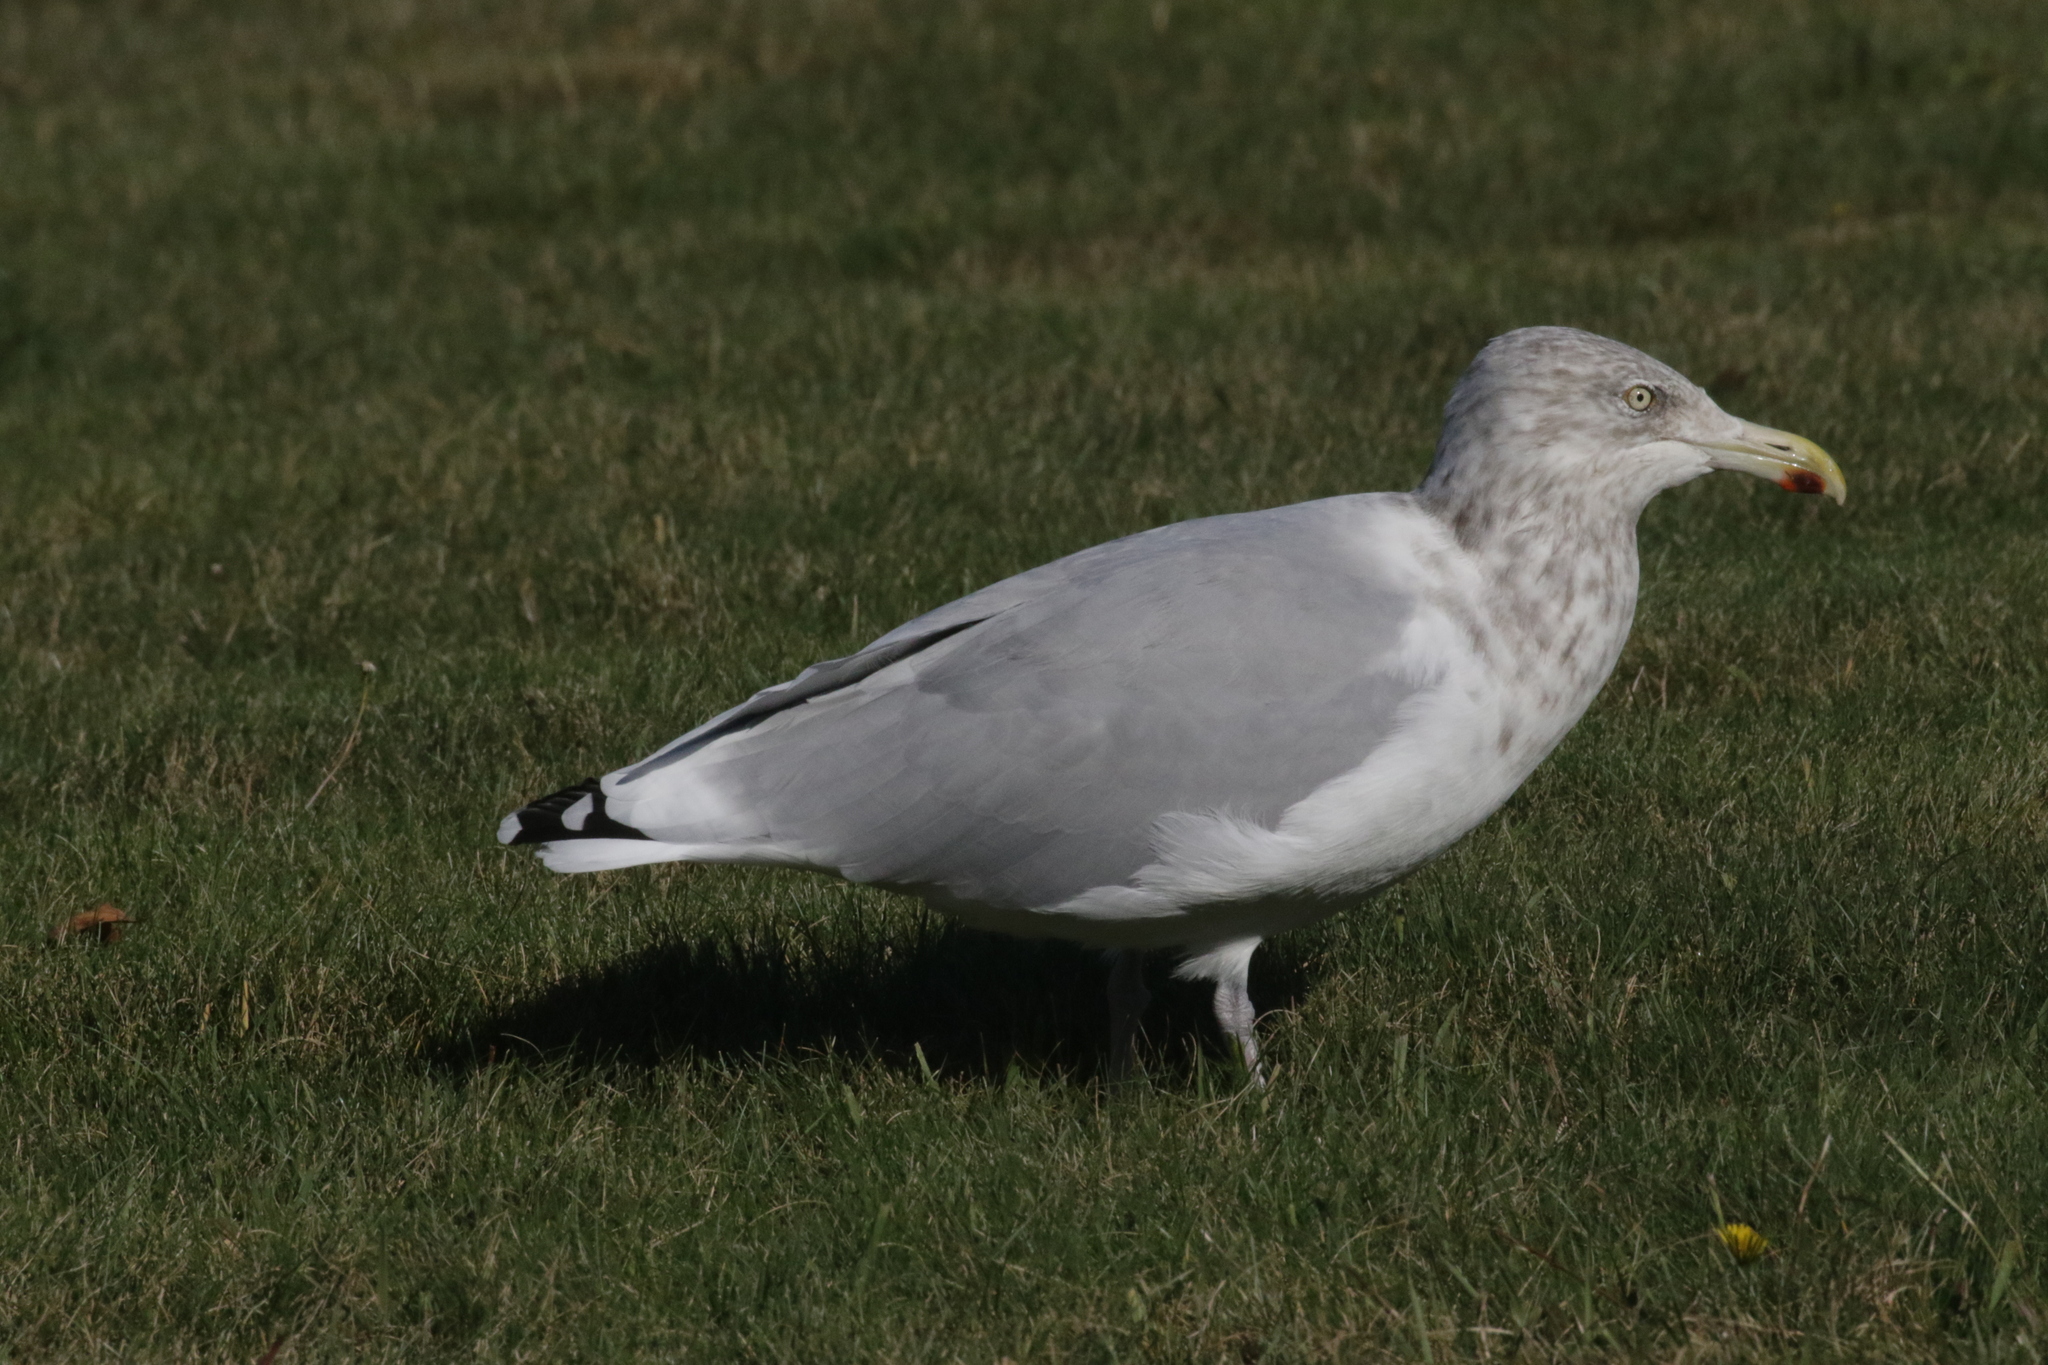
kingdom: Animalia
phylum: Chordata
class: Aves
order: Charadriiformes
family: Laridae
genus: Larus
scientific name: Larus argentatus
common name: Herring gull
